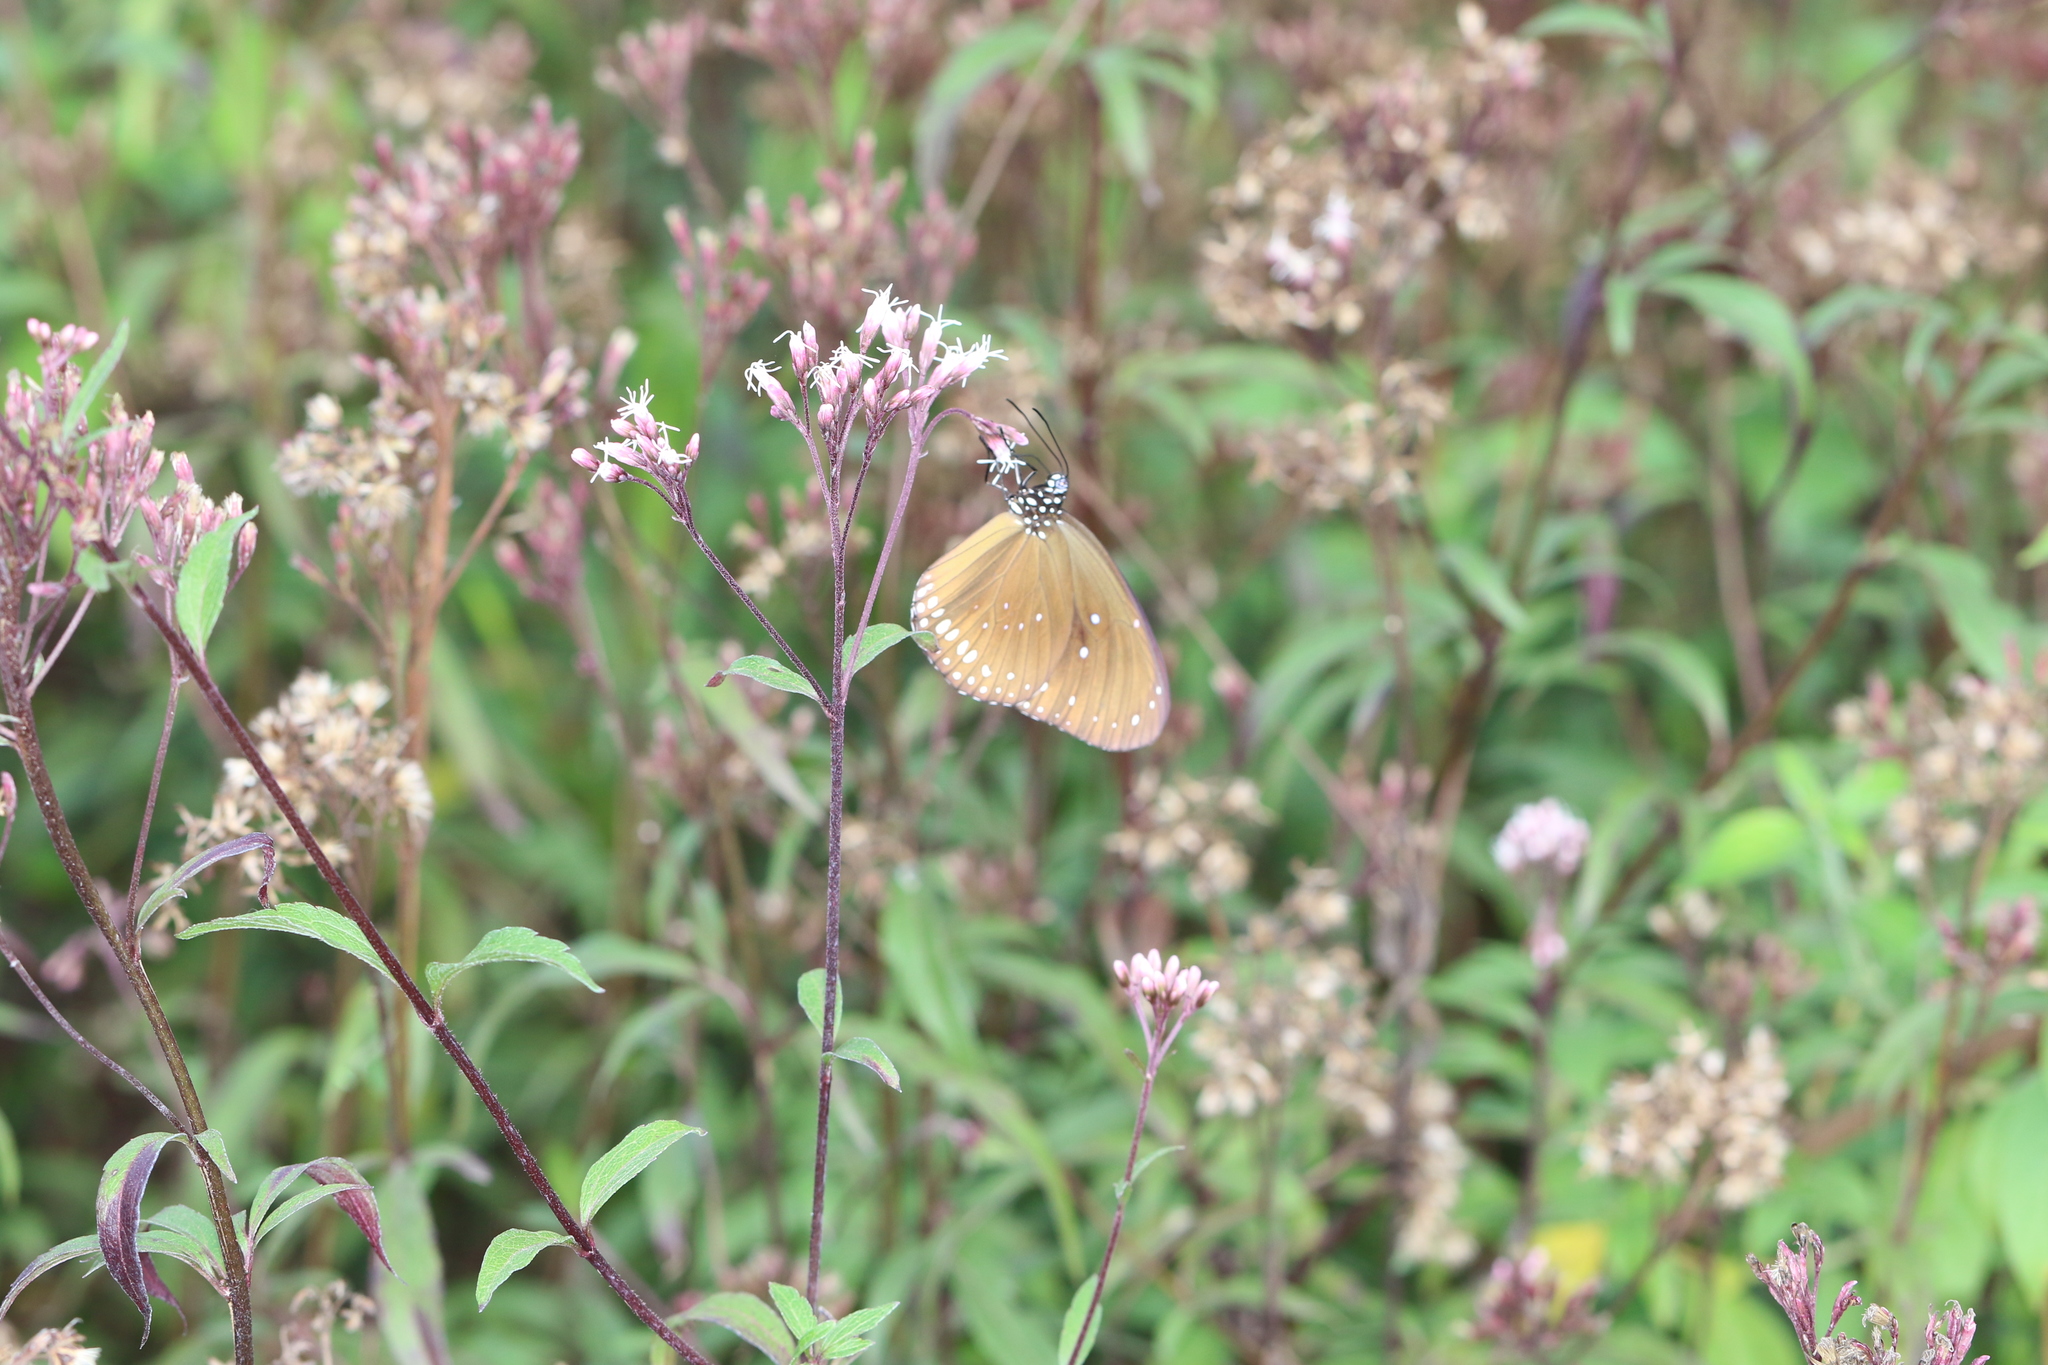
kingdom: Animalia
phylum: Arthropoda
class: Insecta
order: Lepidoptera
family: Nymphalidae
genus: Euploea
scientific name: Euploea midamus
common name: Blue-spotted crow butterfly
